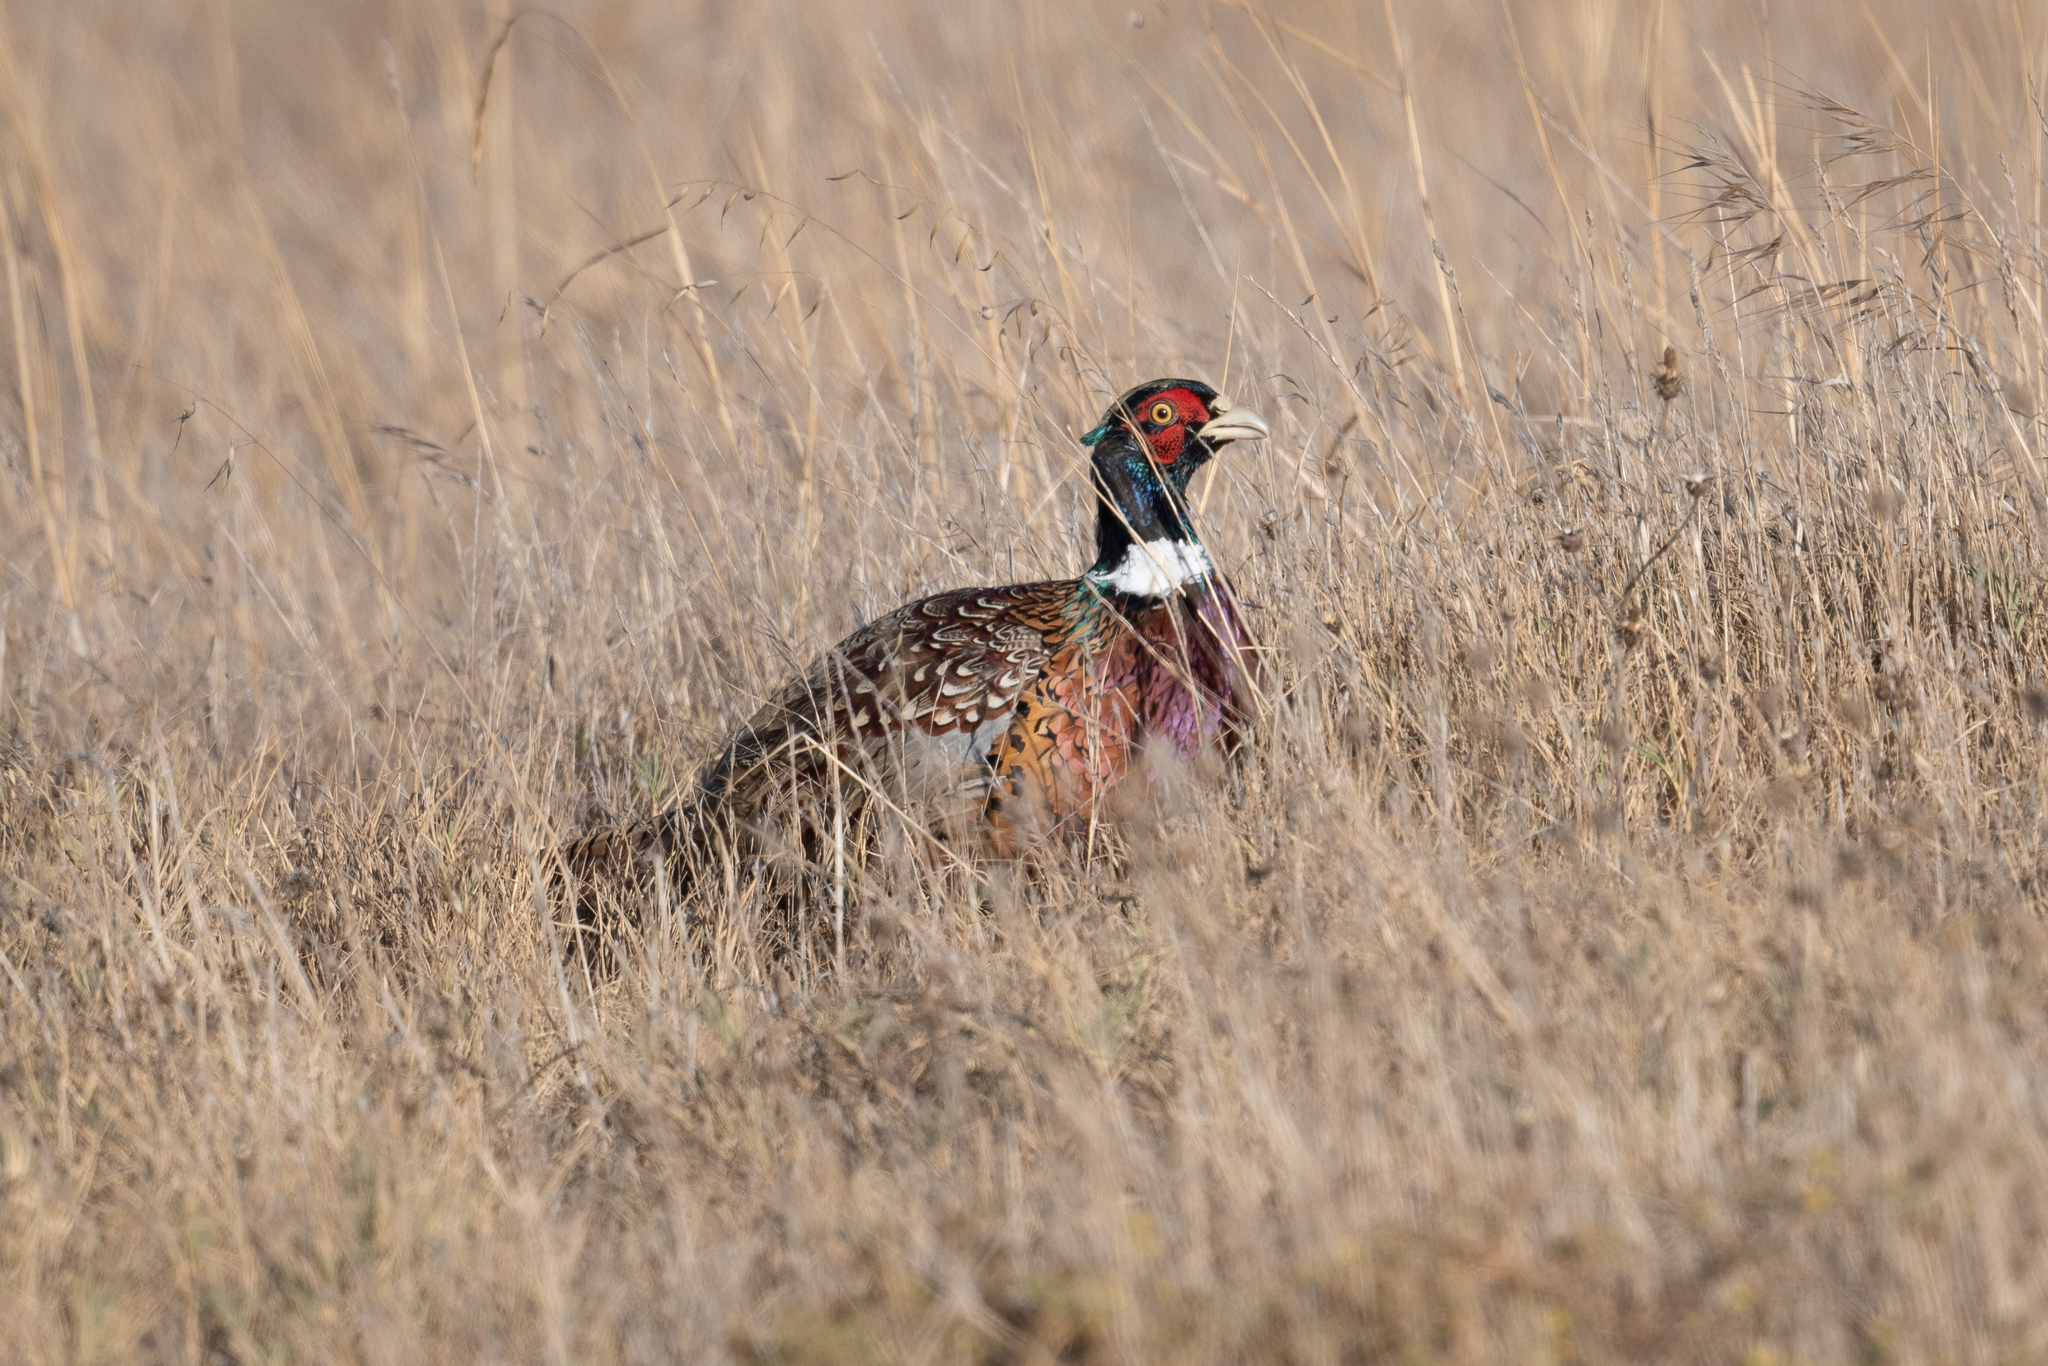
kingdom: Animalia
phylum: Chordata
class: Aves
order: Galliformes
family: Phasianidae
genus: Phasianus
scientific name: Phasianus colchicus
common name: Common pheasant
